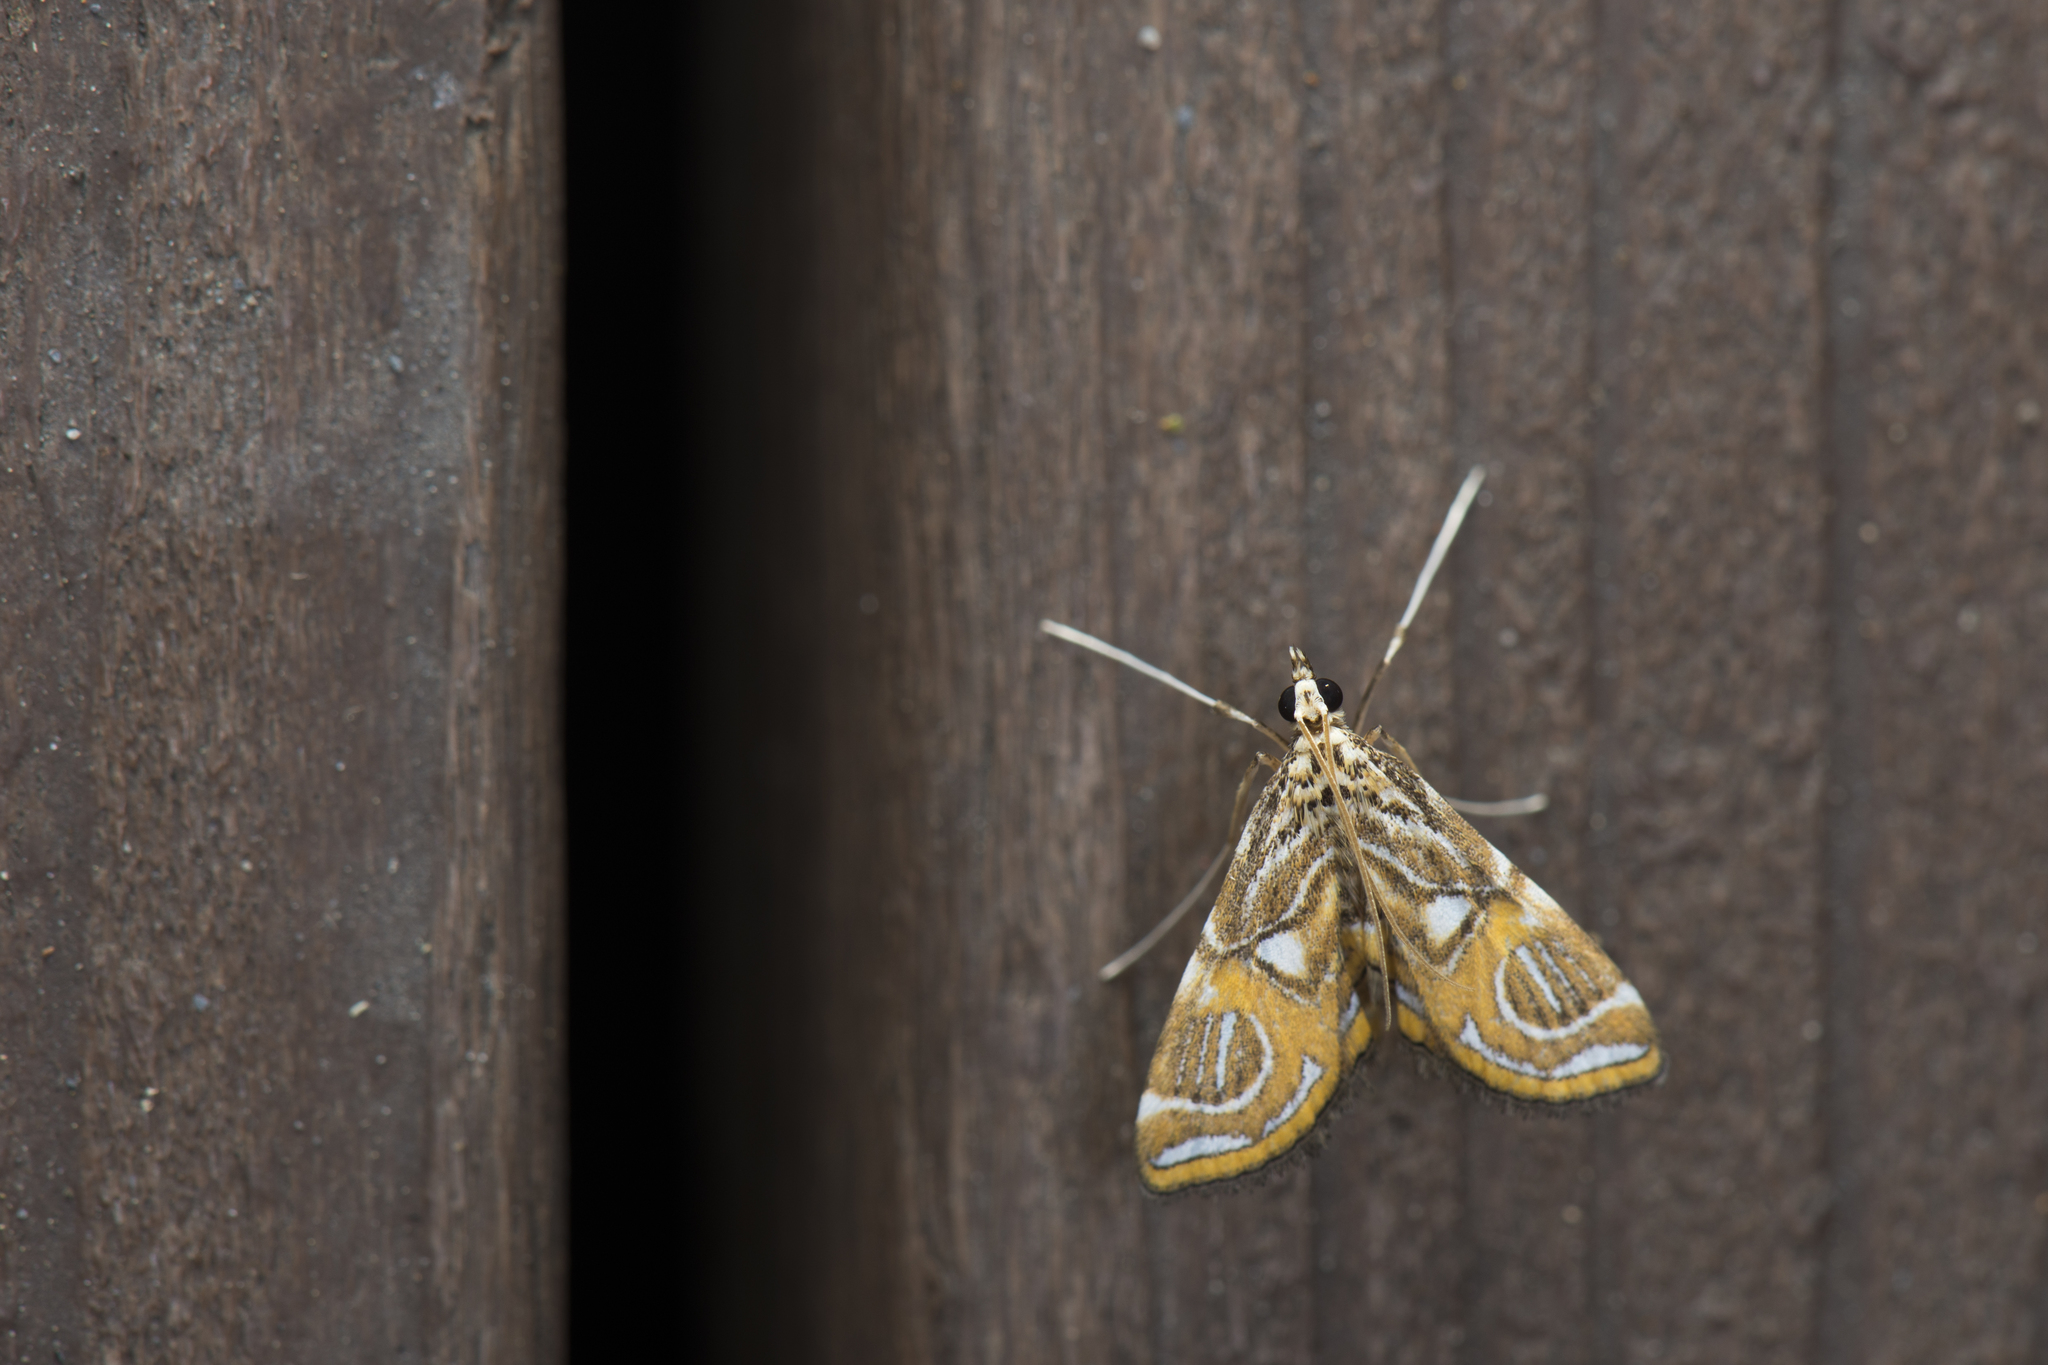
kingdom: Animalia
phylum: Arthropoda
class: Insecta
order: Lepidoptera
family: Crambidae
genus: Paracymoriza
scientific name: Paracymoriza cataclystalis
